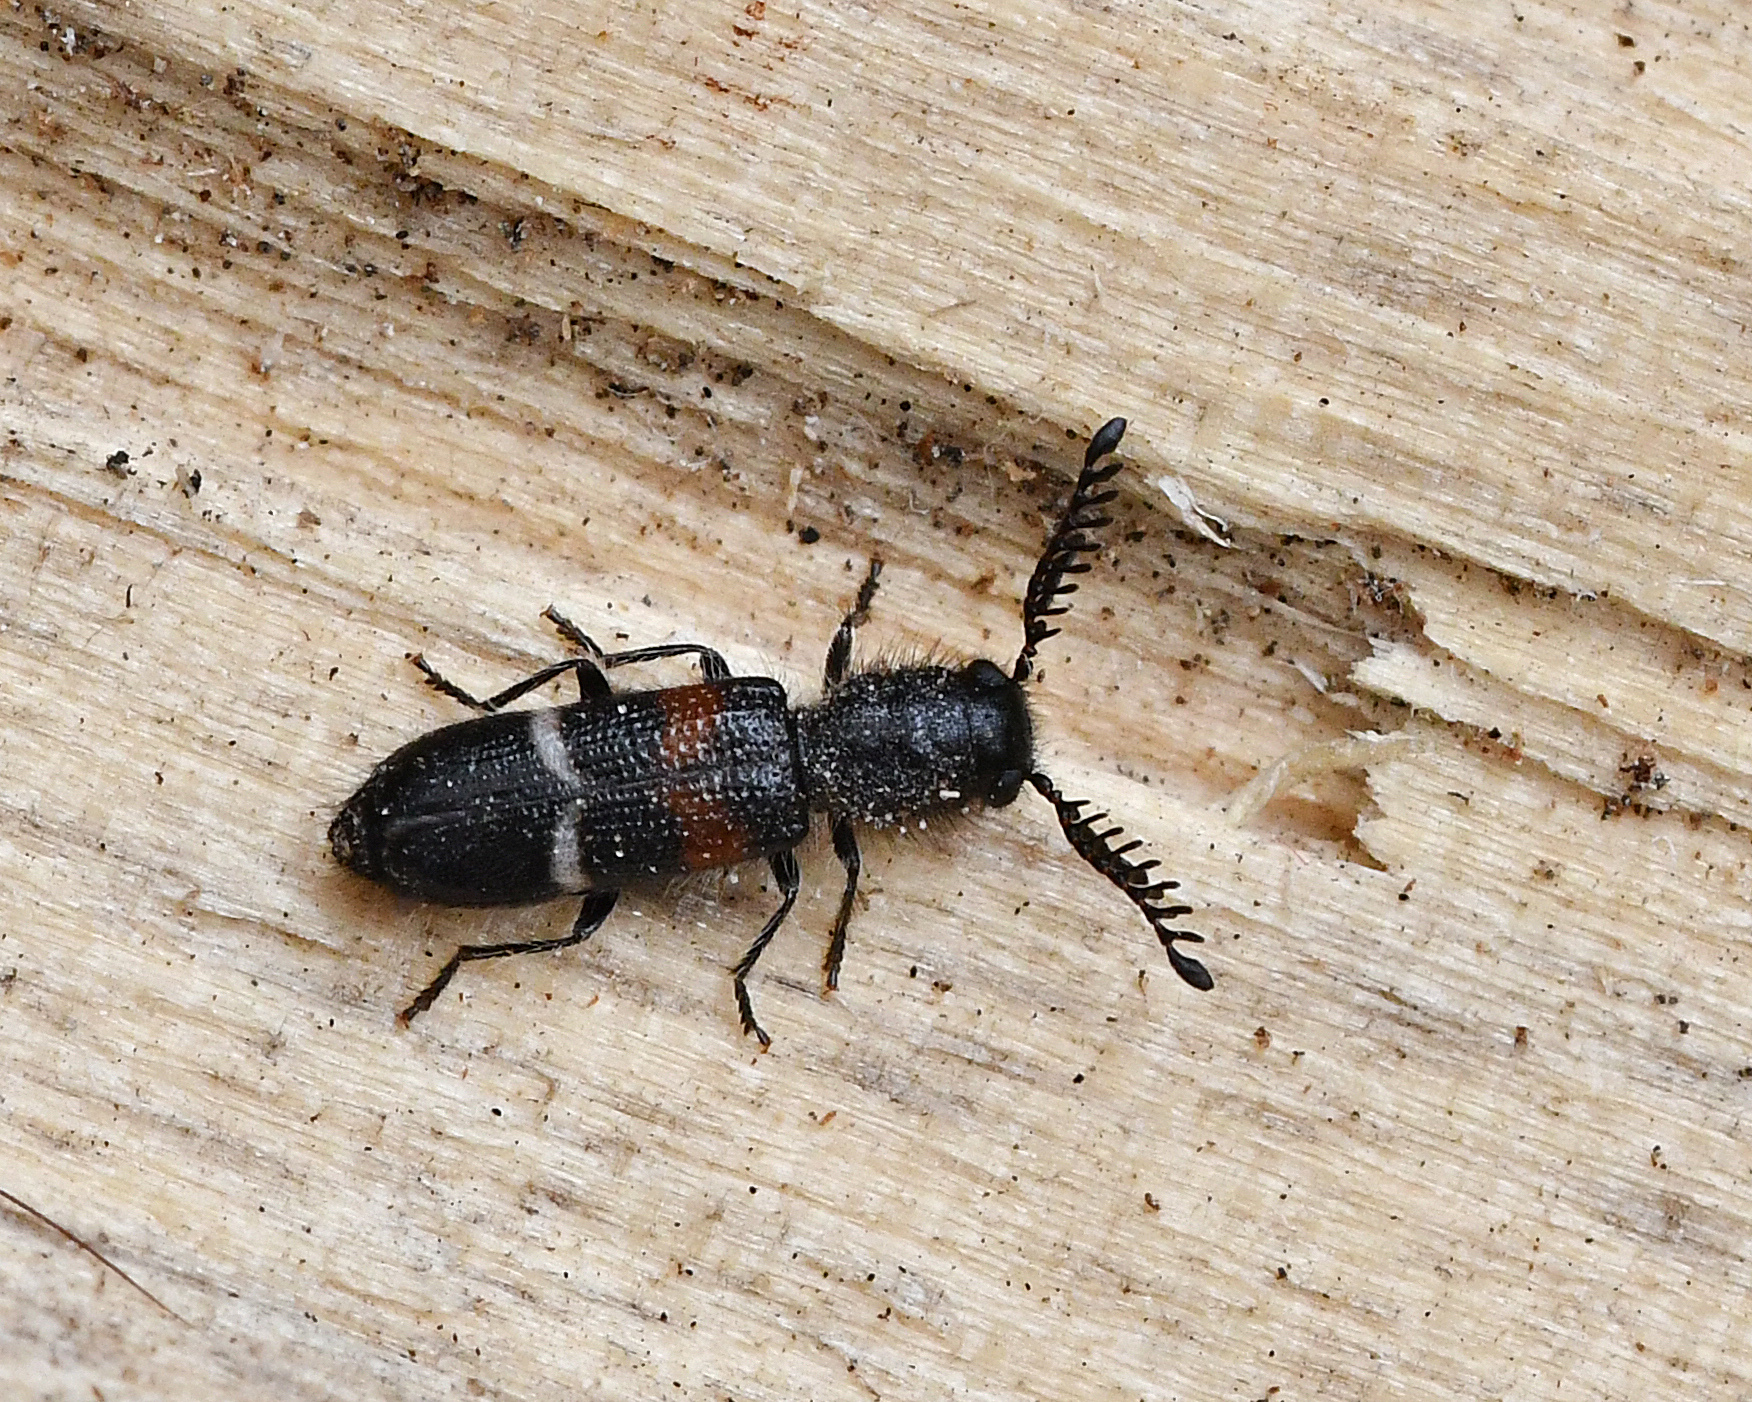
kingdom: Animalia
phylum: Arthropoda
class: Insecta
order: Coleoptera
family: Cleridae
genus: Flabellotilloidea
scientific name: Flabellotilloidea palaestina
